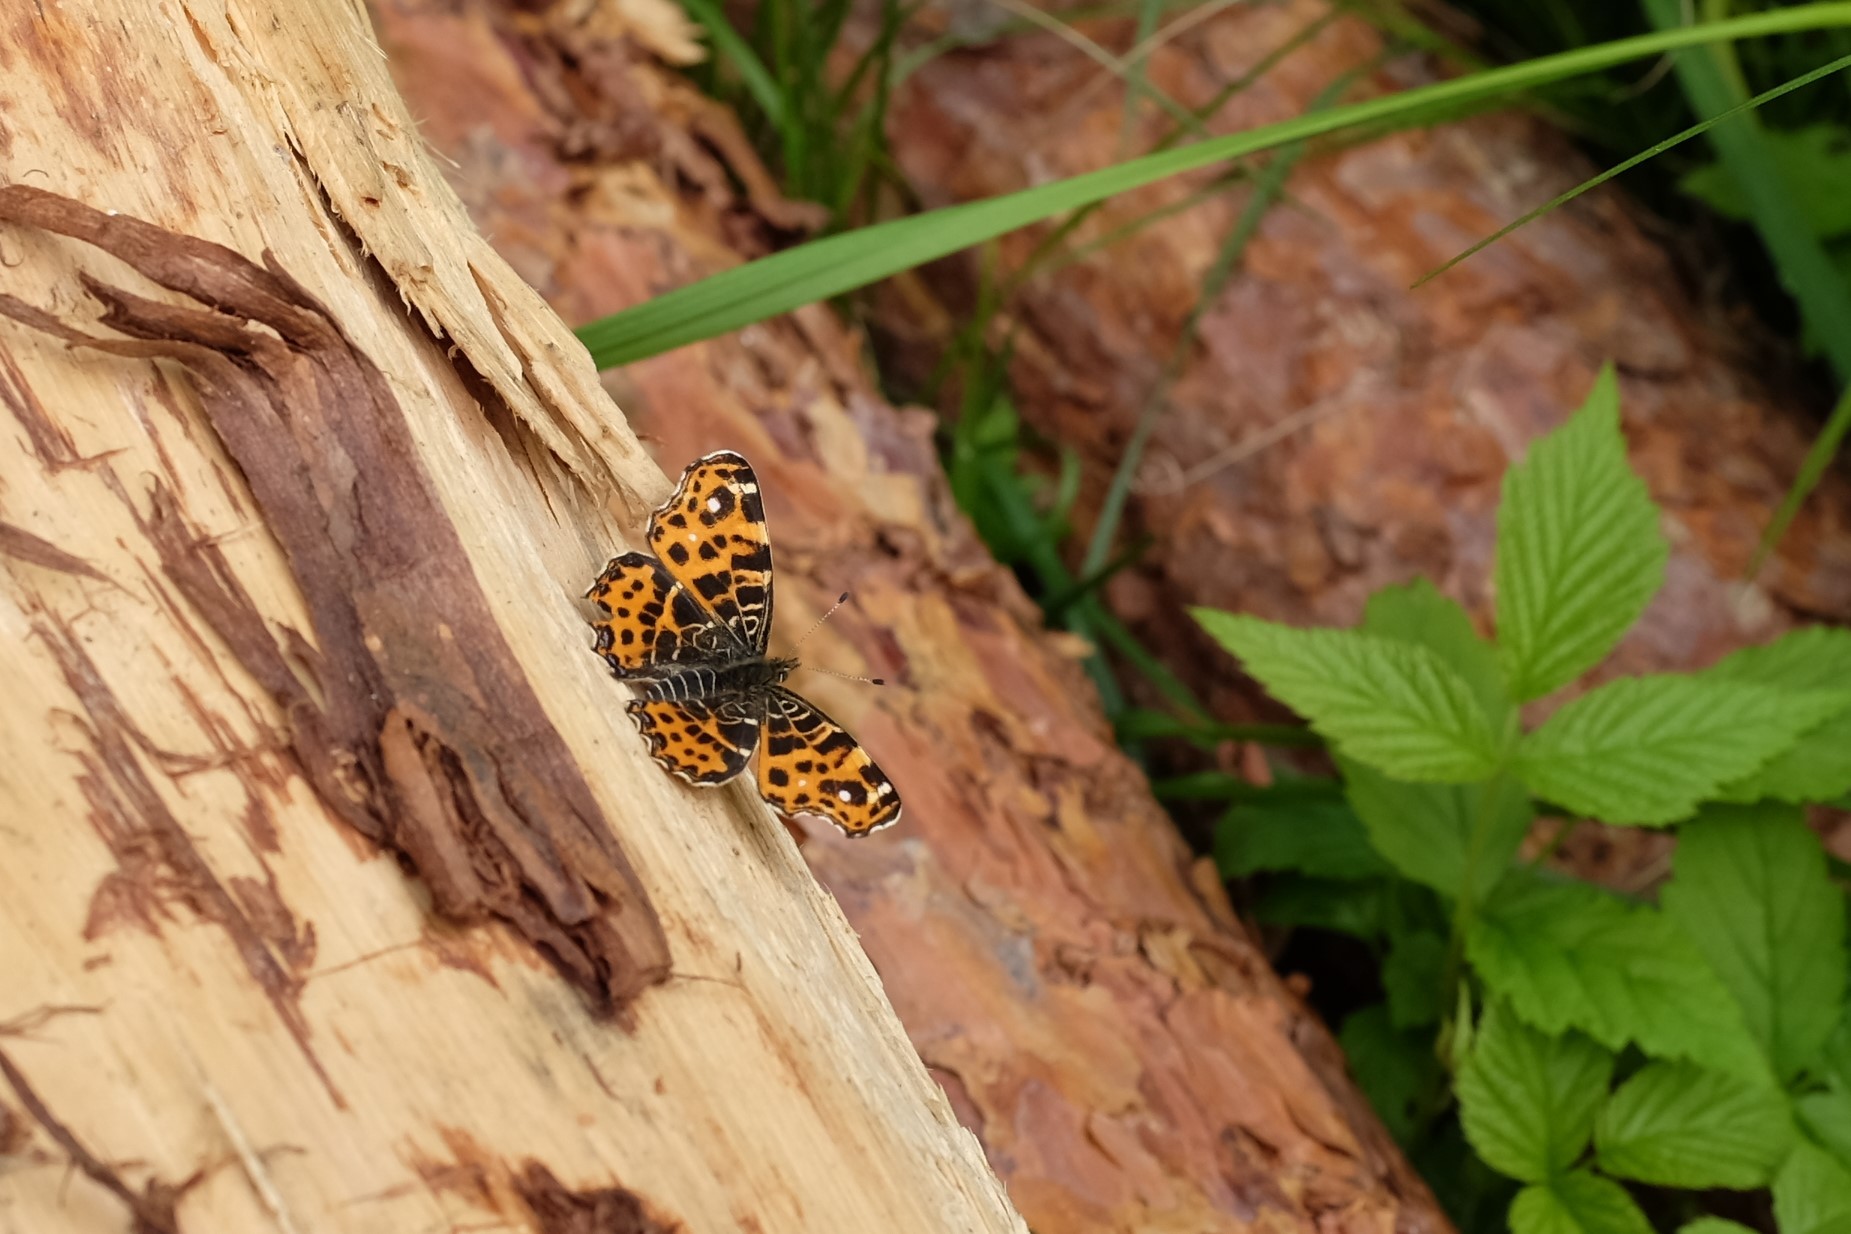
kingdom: Animalia
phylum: Arthropoda
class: Insecta
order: Lepidoptera
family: Nymphalidae
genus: Araschnia
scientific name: Araschnia levana
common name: Map butterfly
